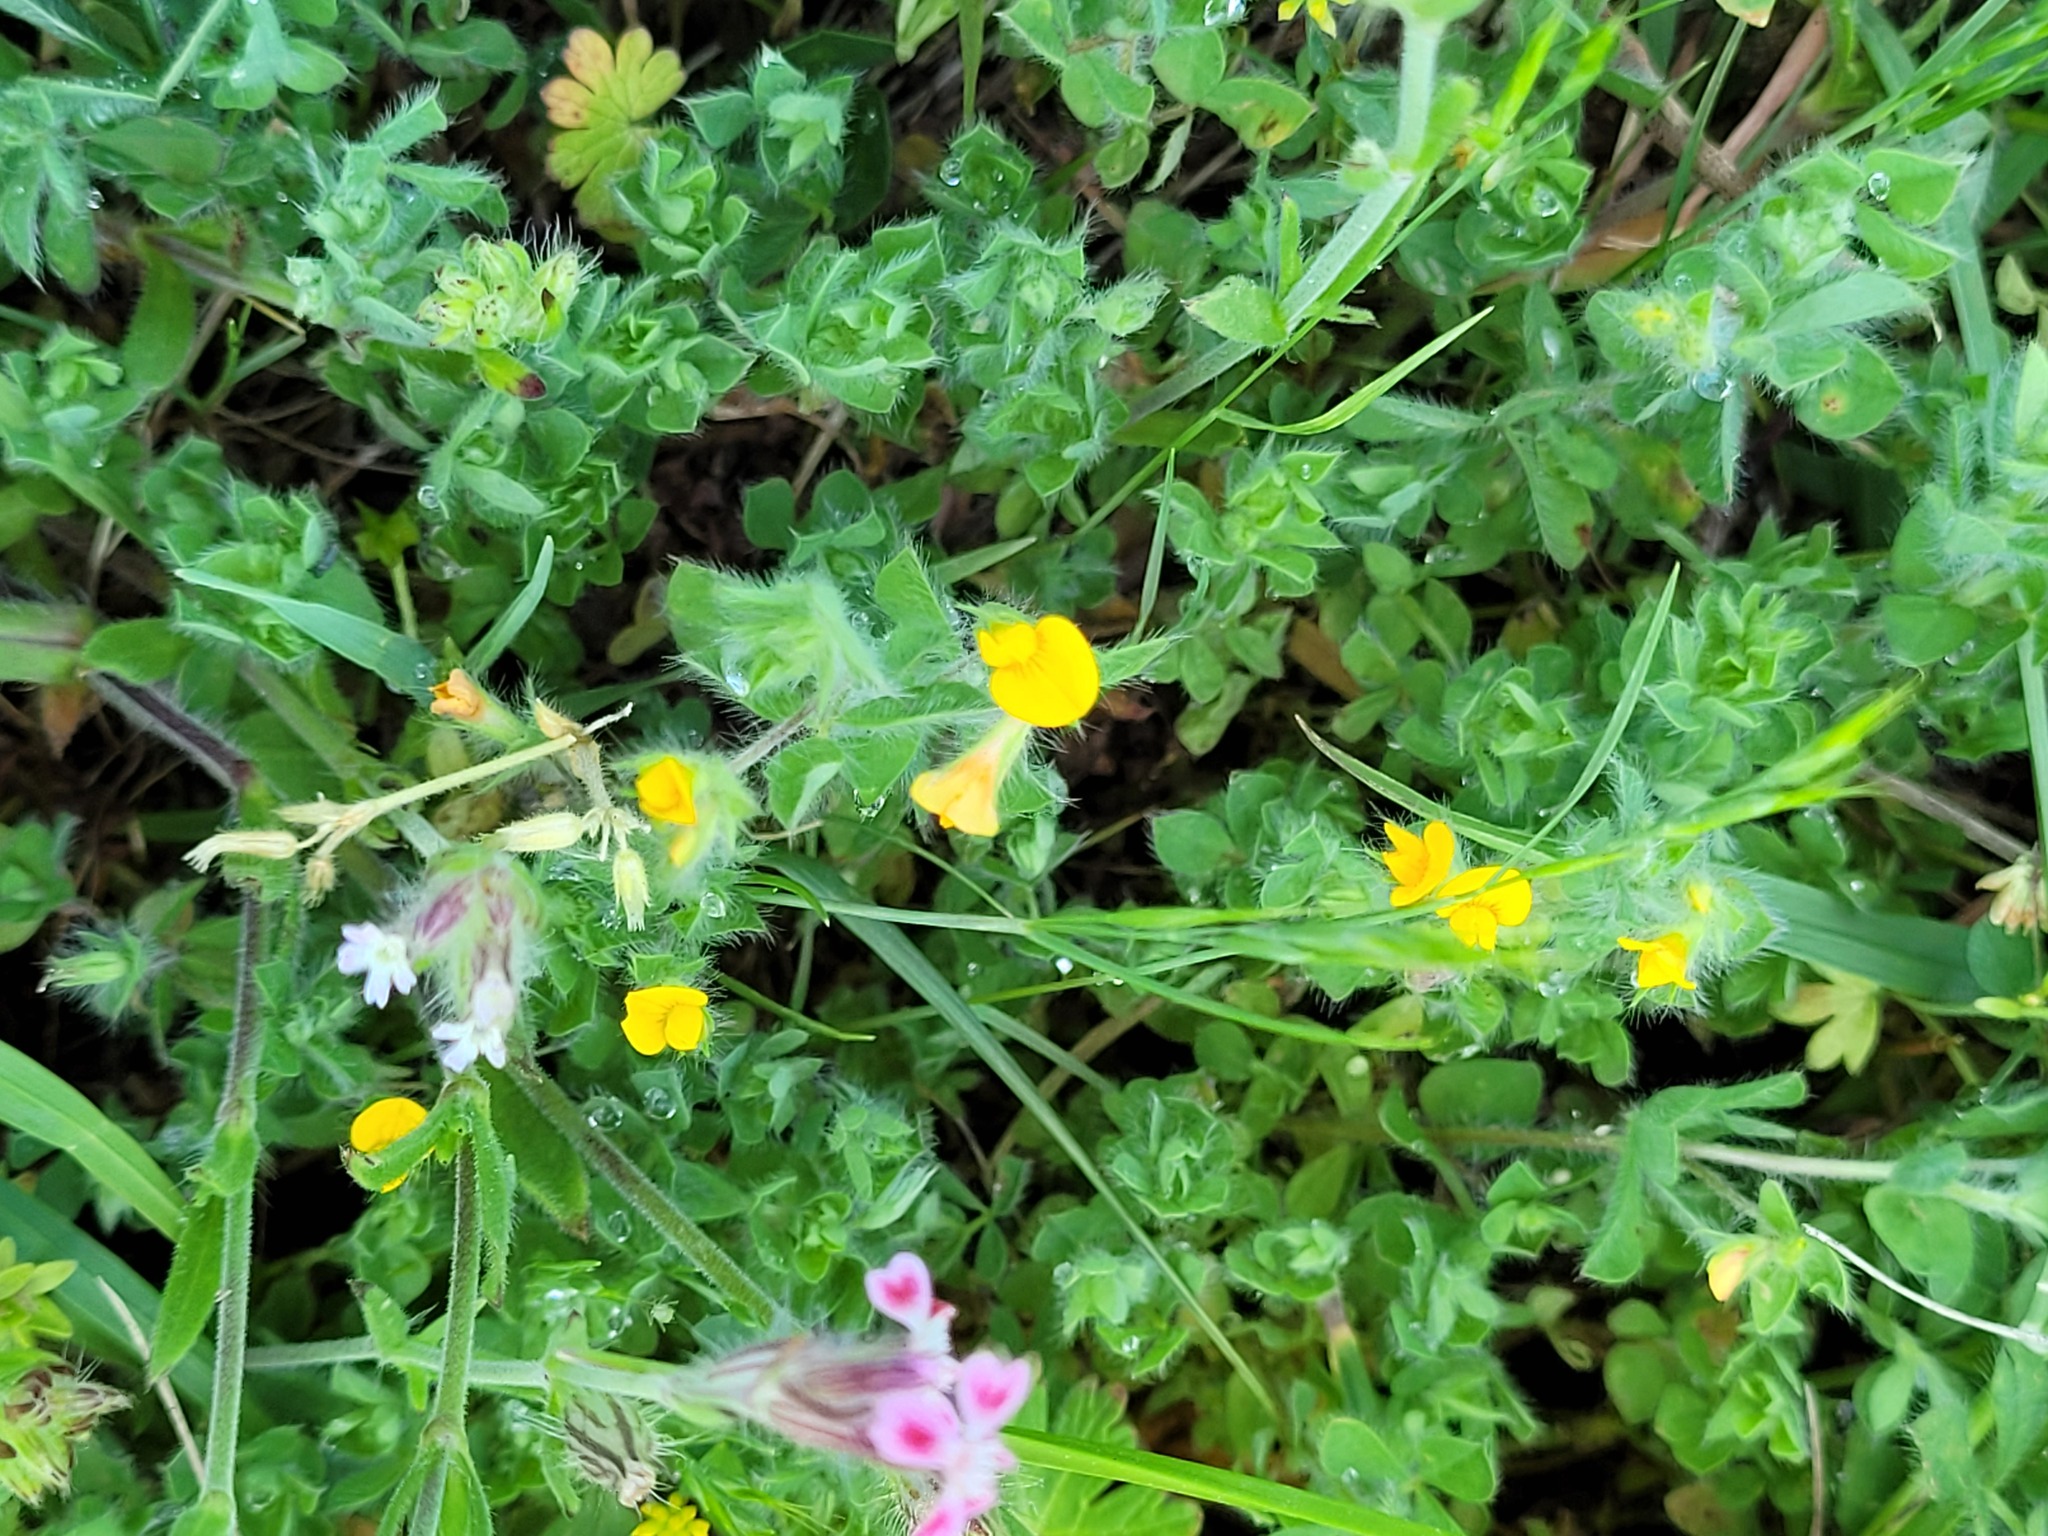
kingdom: Plantae
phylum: Tracheophyta
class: Magnoliopsida
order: Fabales
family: Fabaceae
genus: Lotus
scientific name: Lotus subbiflorus
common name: Hairy bird's-foot trefoil
